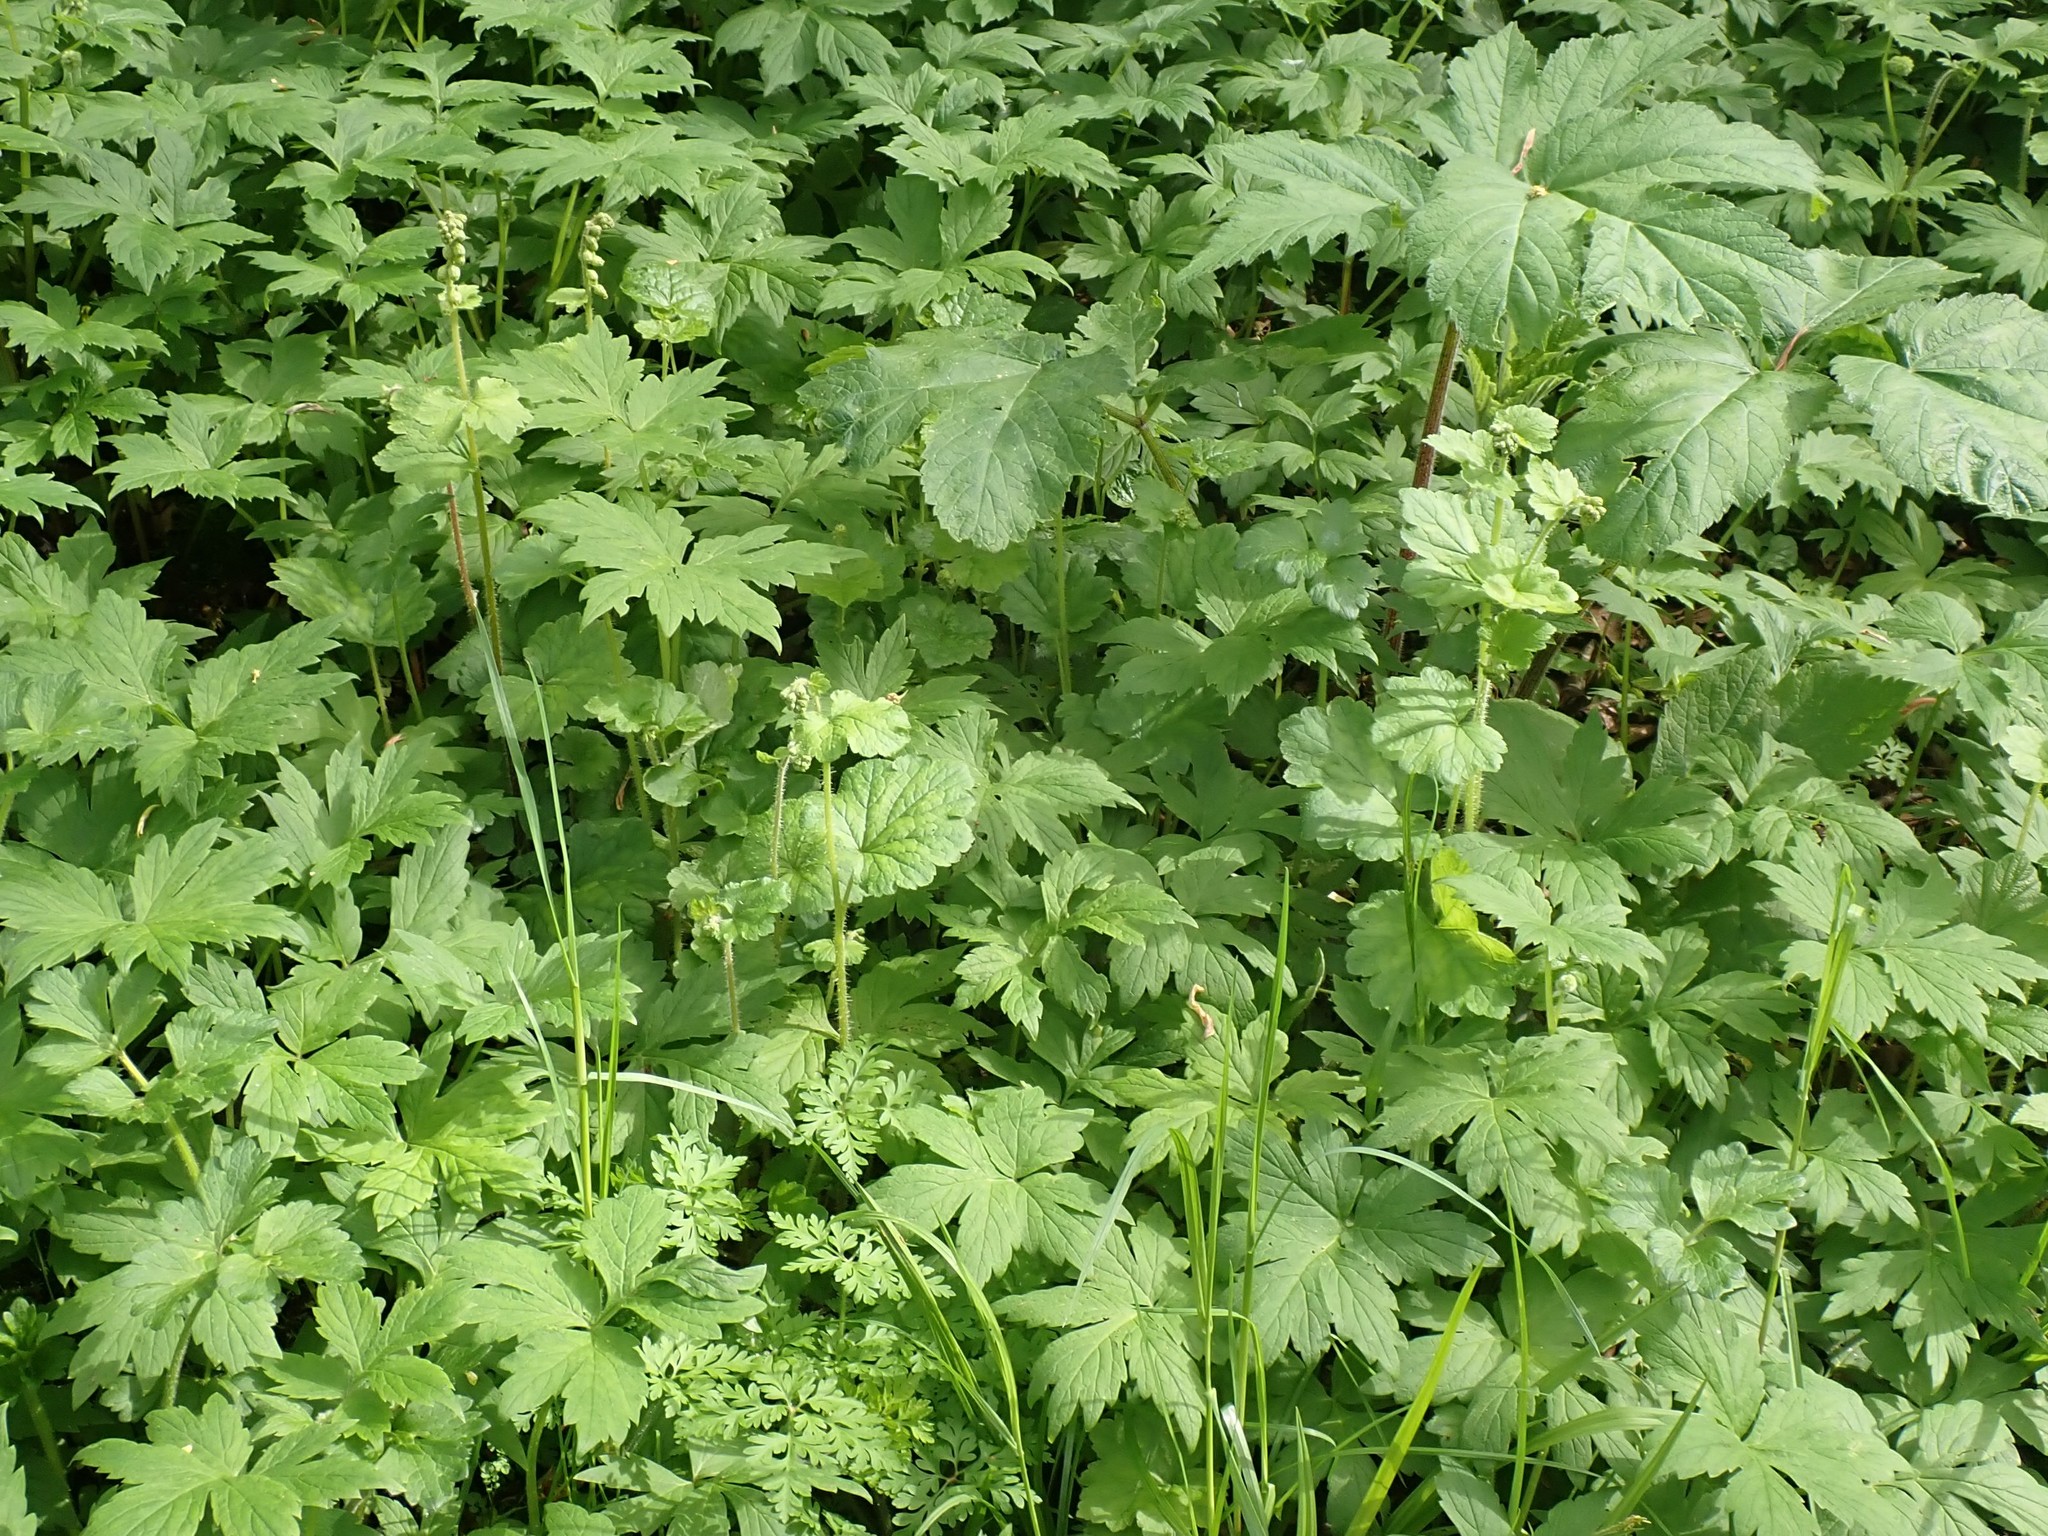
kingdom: Plantae
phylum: Tracheophyta
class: Magnoliopsida
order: Saxifragales
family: Saxifragaceae
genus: Tellima
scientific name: Tellima grandiflora
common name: Fringecups
